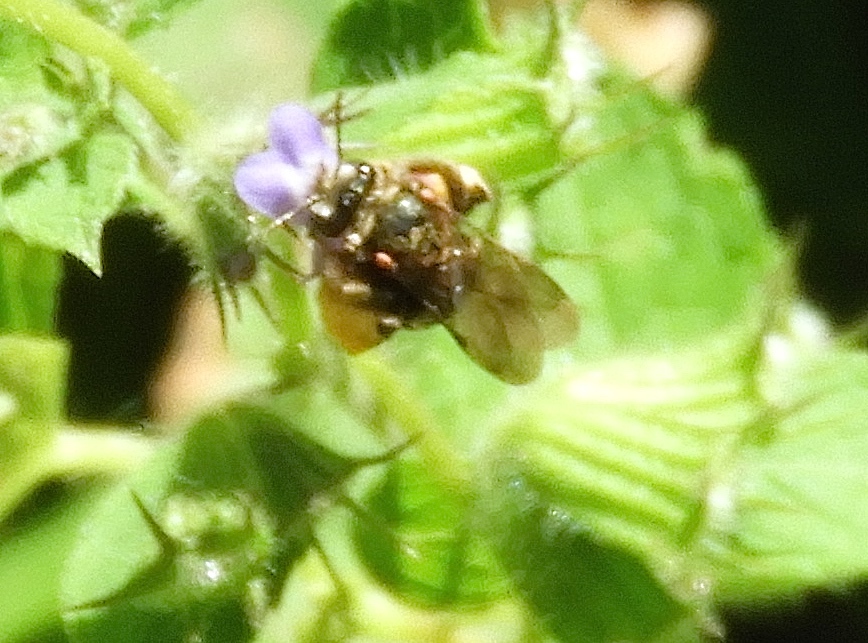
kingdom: Animalia
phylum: Arthropoda
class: Insecta
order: Hymenoptera
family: Apidae
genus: Exomalopsis
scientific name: Exomalopsis
